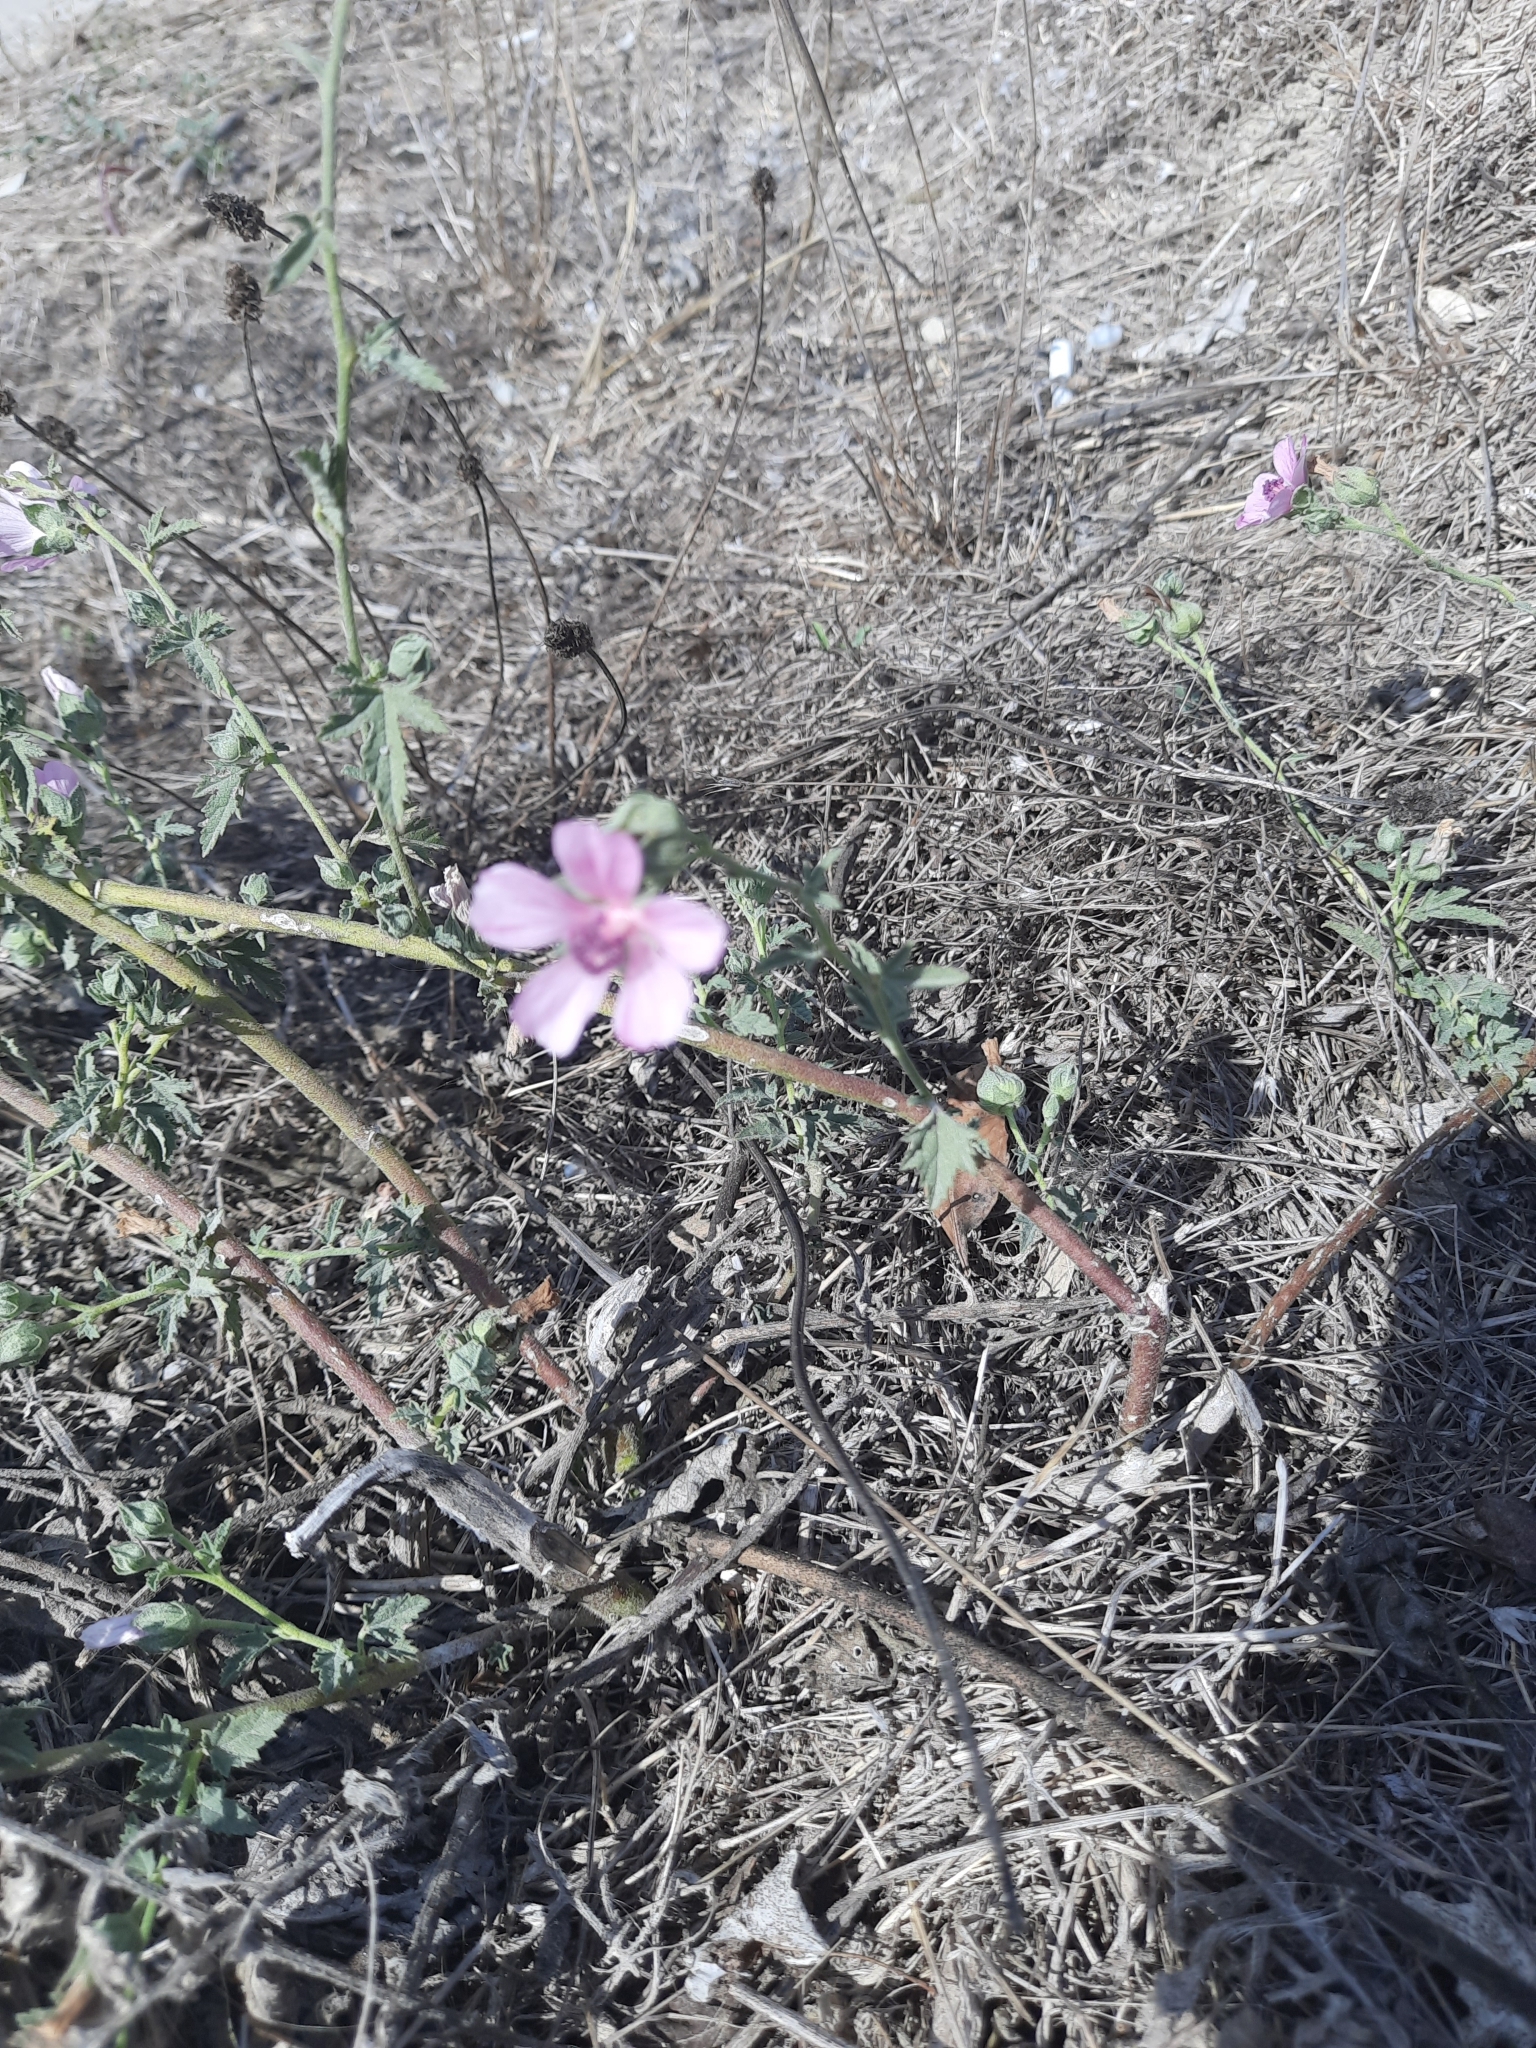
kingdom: Plantae
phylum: Tracheophyta
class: Magnoliopsida
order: Malvales
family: Malvaceae
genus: Althaea
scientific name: Althaea cannabina
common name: Palm-leaf marshmallow
